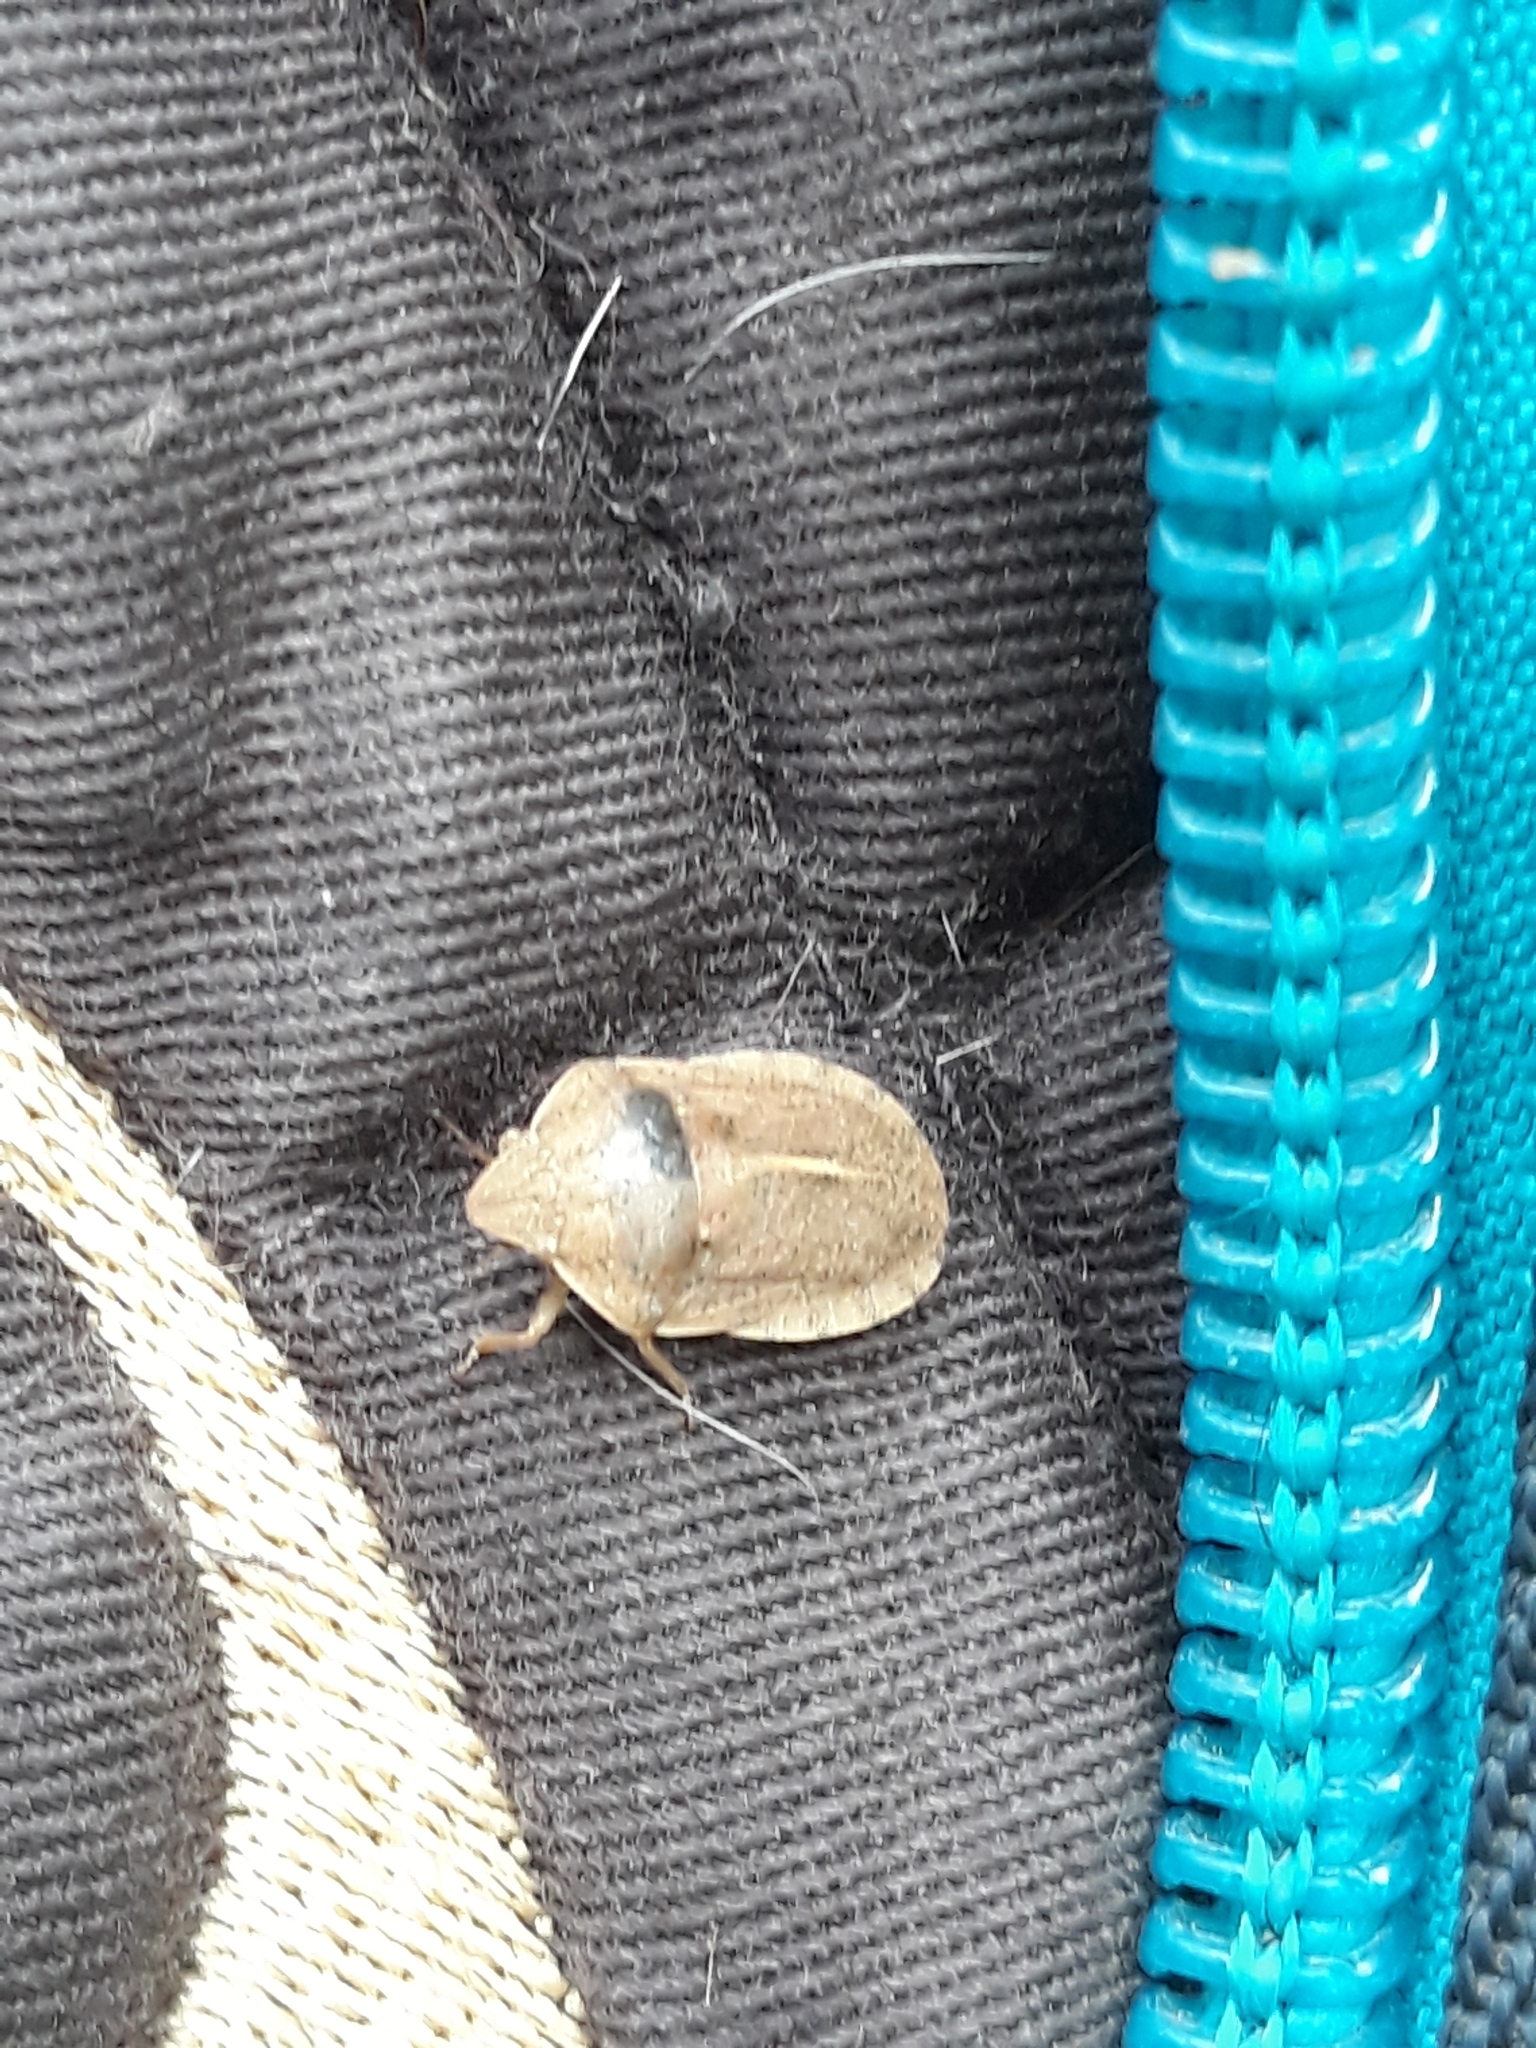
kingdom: Animalia
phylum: Arthropoda
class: Insecta
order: Hemiptera
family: Scutelleridae
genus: Eurygaster
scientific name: Eurygaster austriaca
